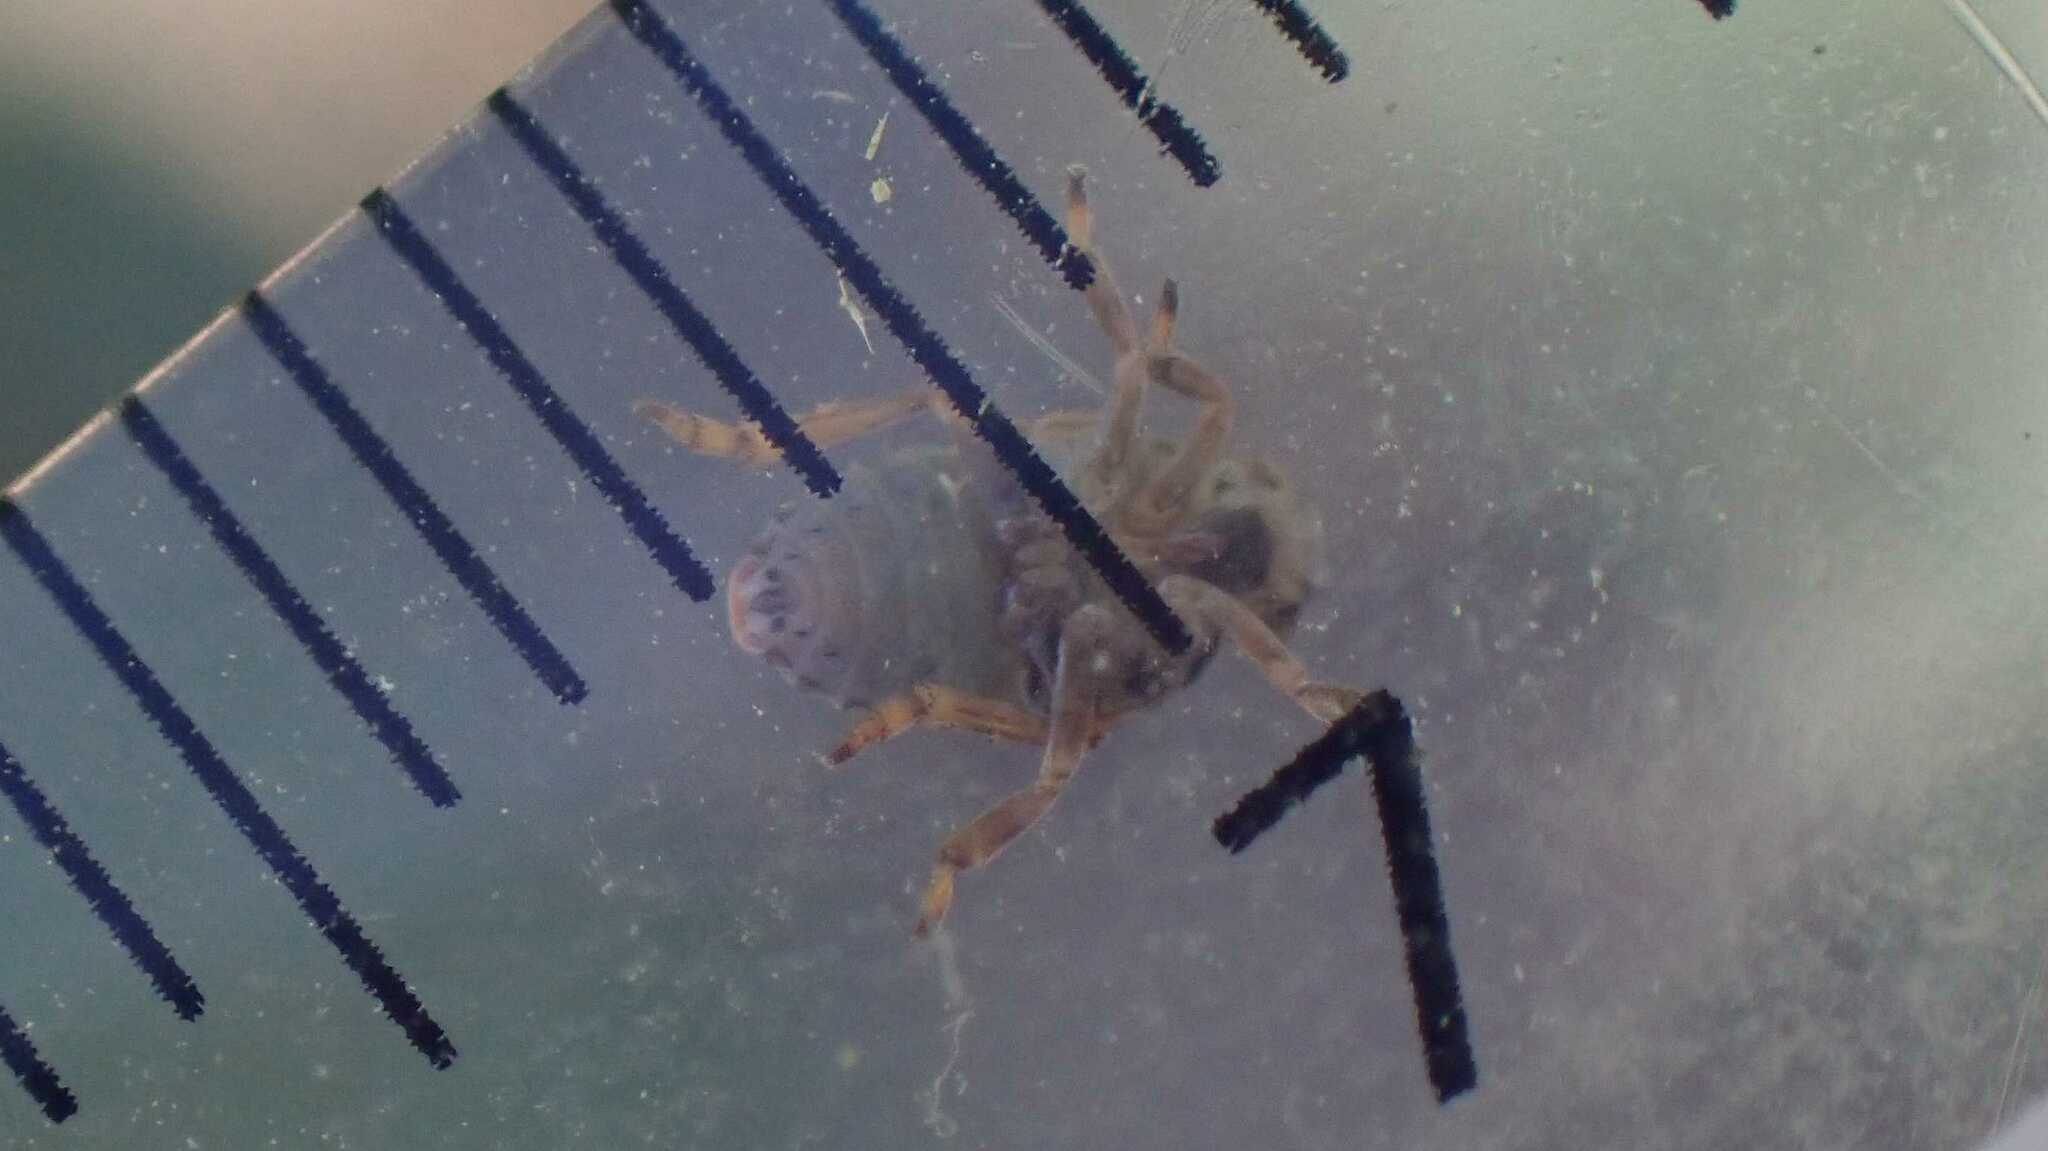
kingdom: Animalia
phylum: Arthropoda
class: Insecta
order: Hemiptera
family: Issidae
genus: Issus
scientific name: Issus coleoptratus
